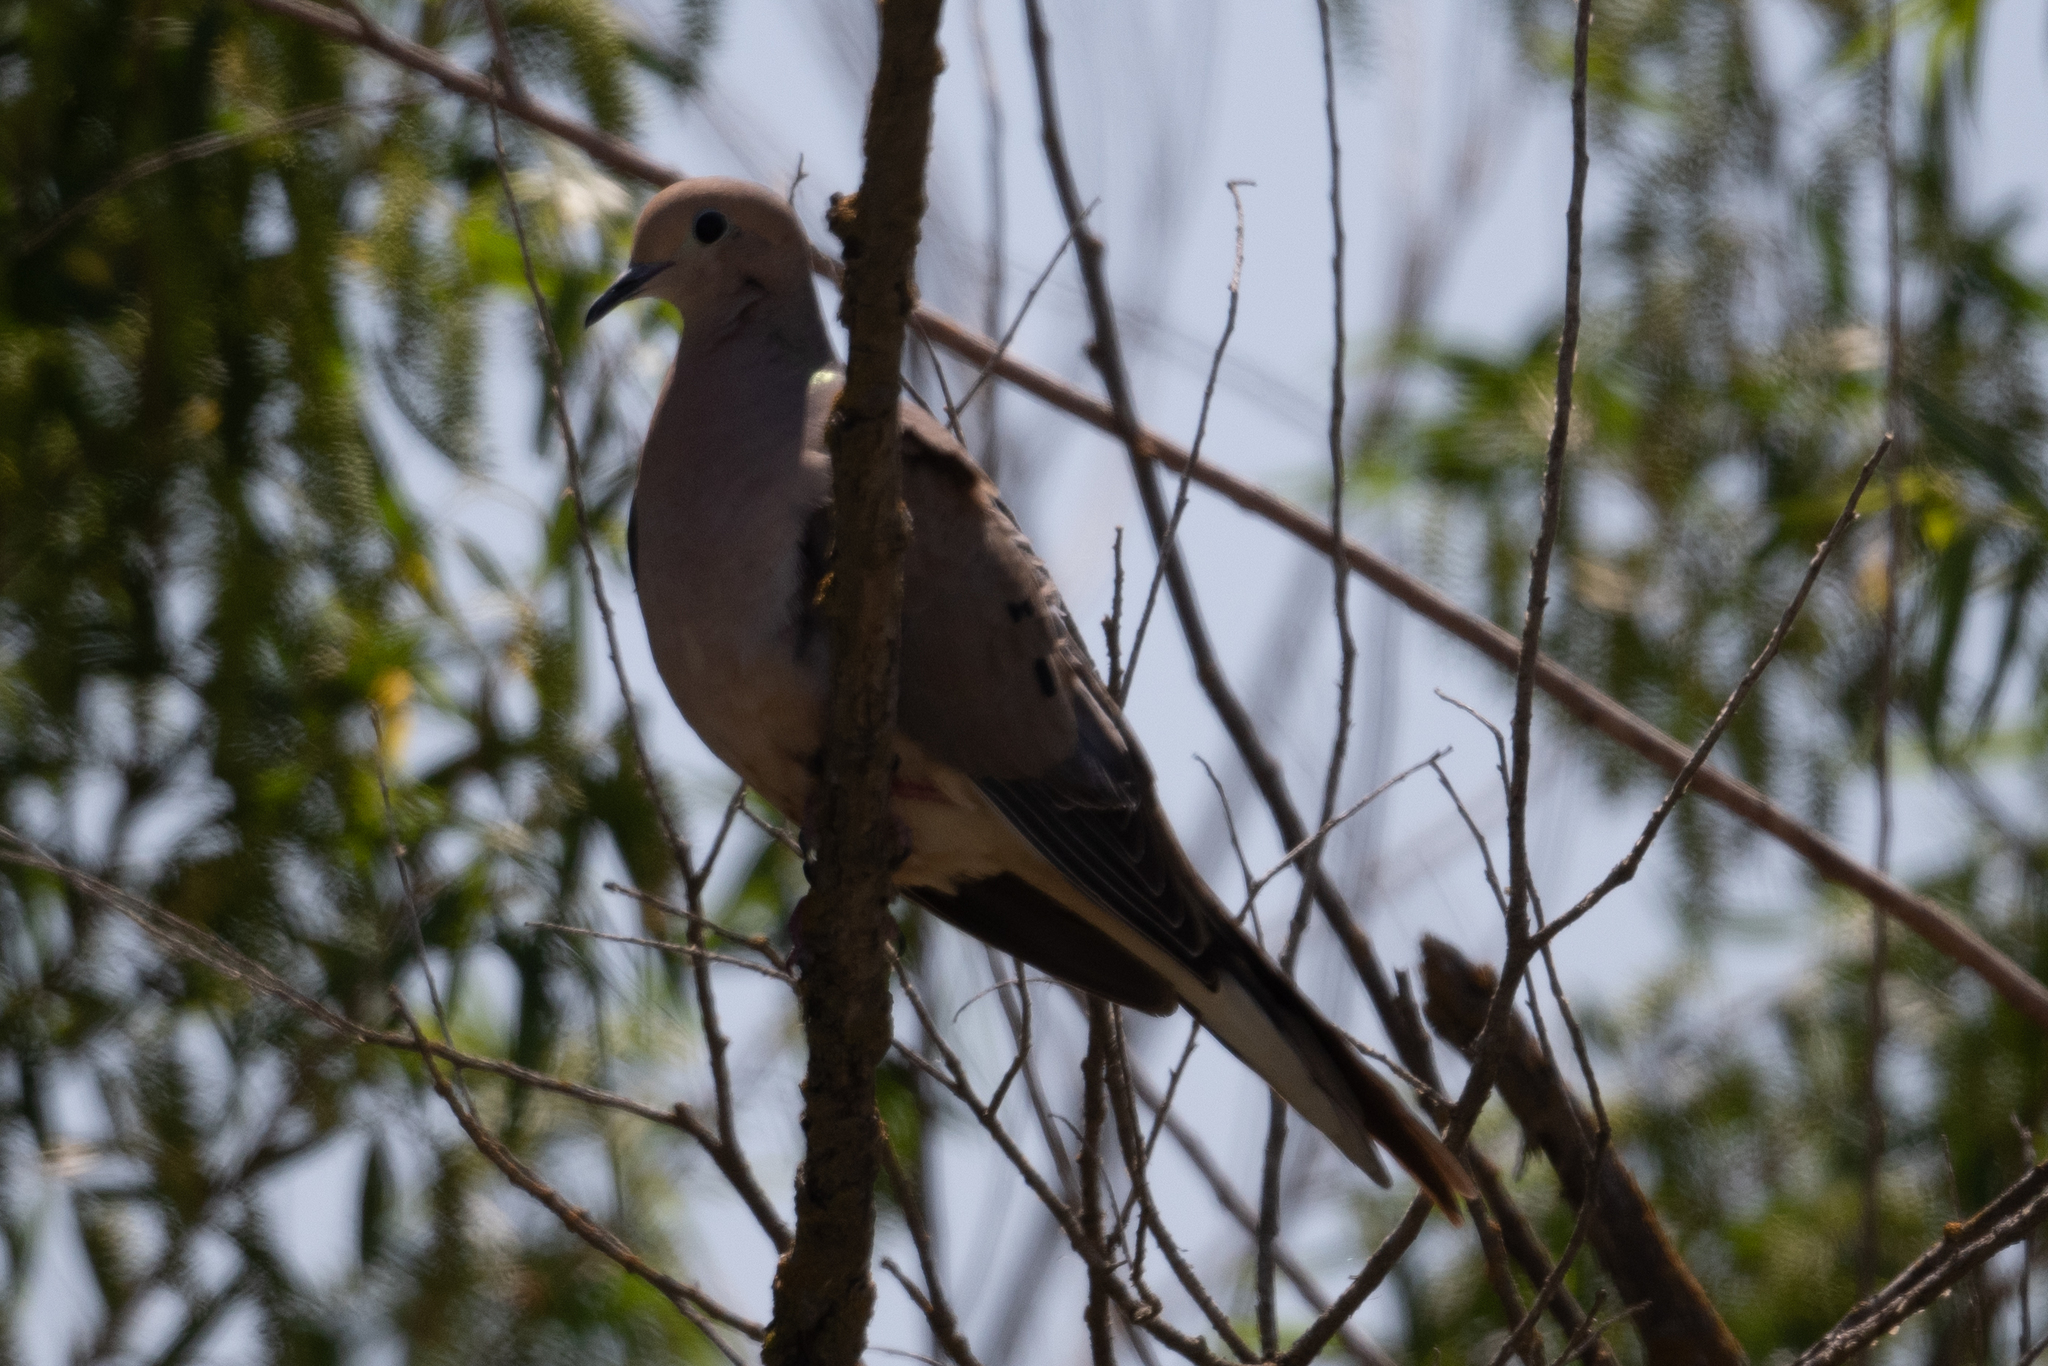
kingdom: Animalia
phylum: Chordata
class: Aves
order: Columbiformes
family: Columbidae
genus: Zenaida
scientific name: Zenaida macroura
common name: Mourning dove
